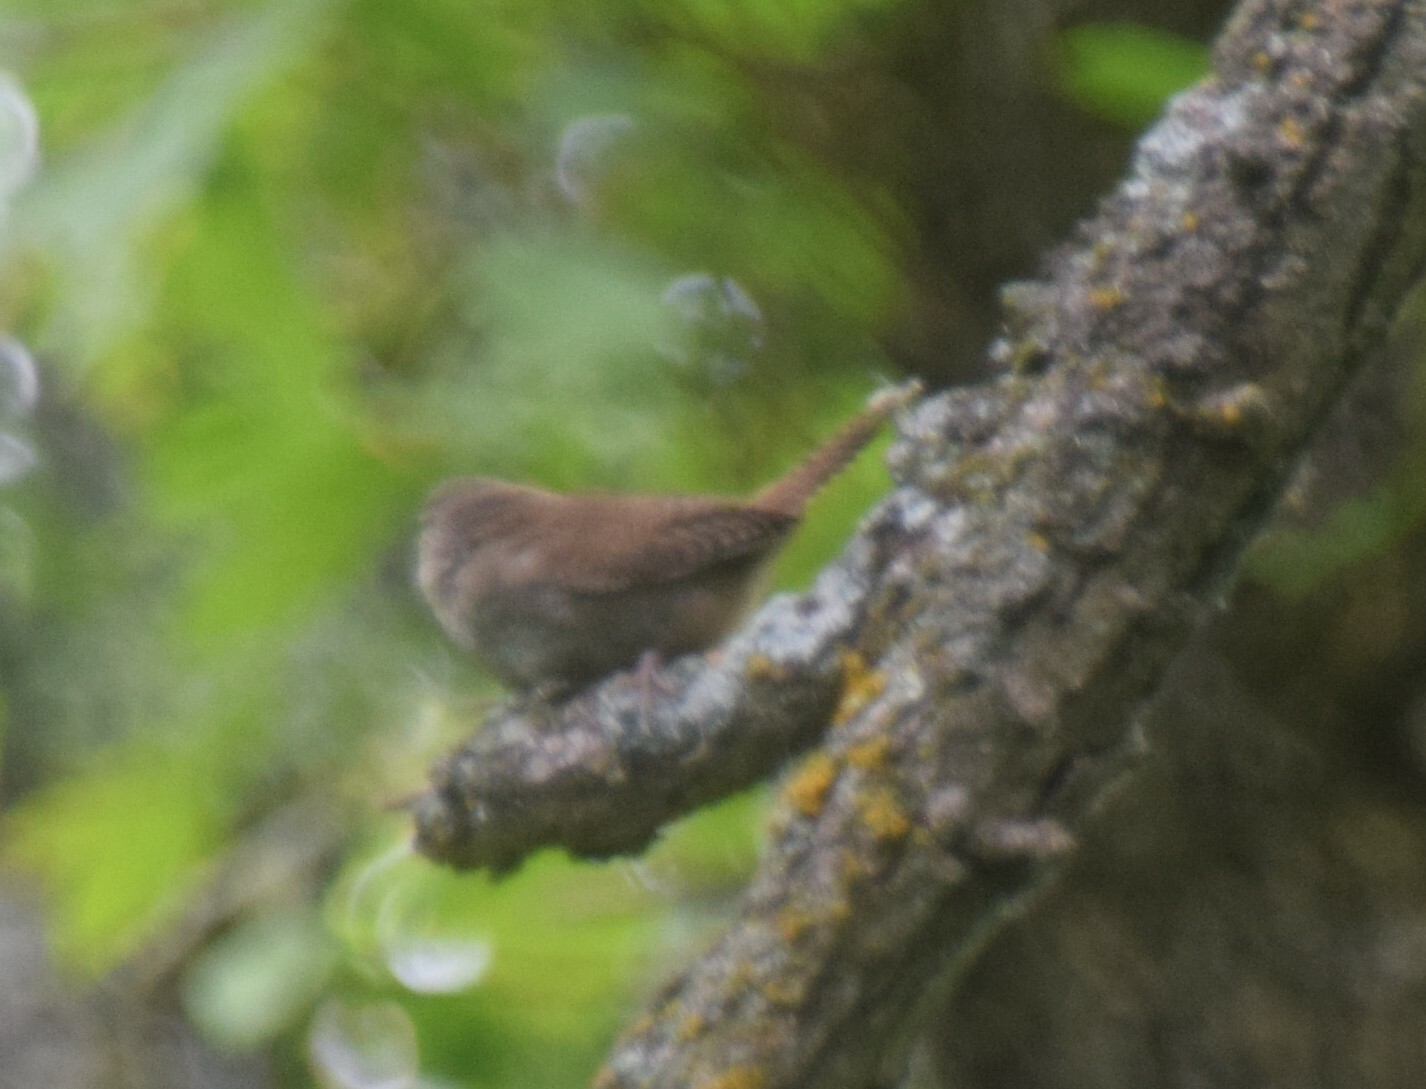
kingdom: Animalia
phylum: Chordata
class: Aves
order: Passeriformes
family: Troglodytidae
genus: Troglodytes
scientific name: Troglodytes aedon
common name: House wren
